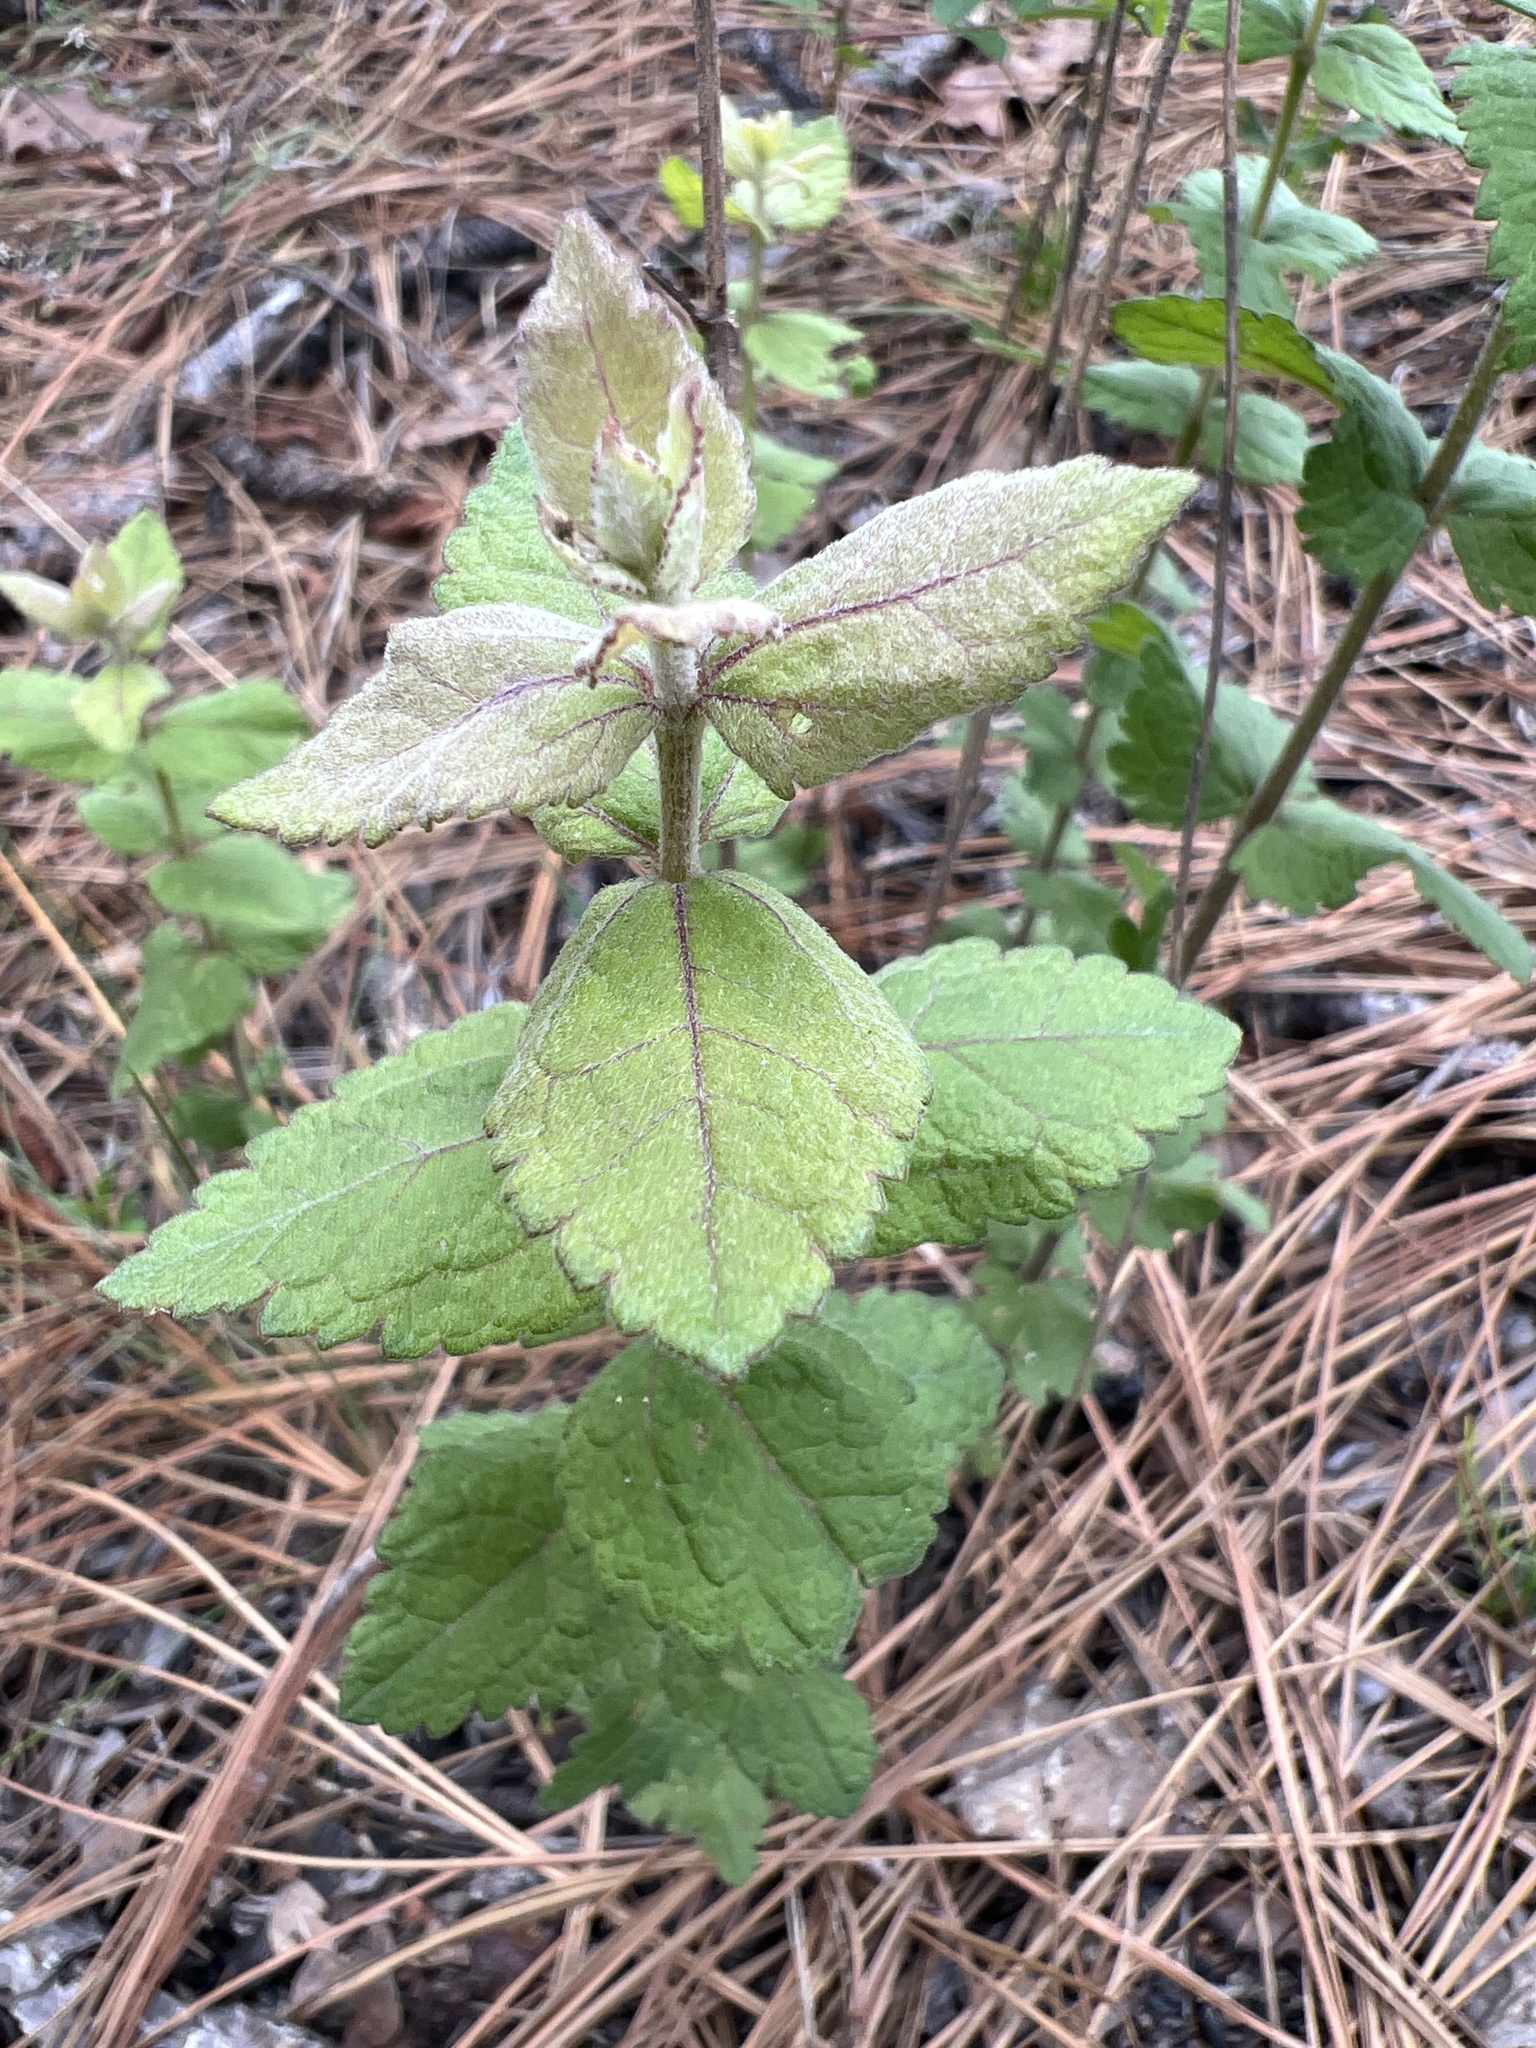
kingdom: Plantae
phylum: Tracheophyta
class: Magnoliopsida
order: Asterales
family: Asteraceae
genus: Eupatorium
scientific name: Eupatorium rotundifolium
